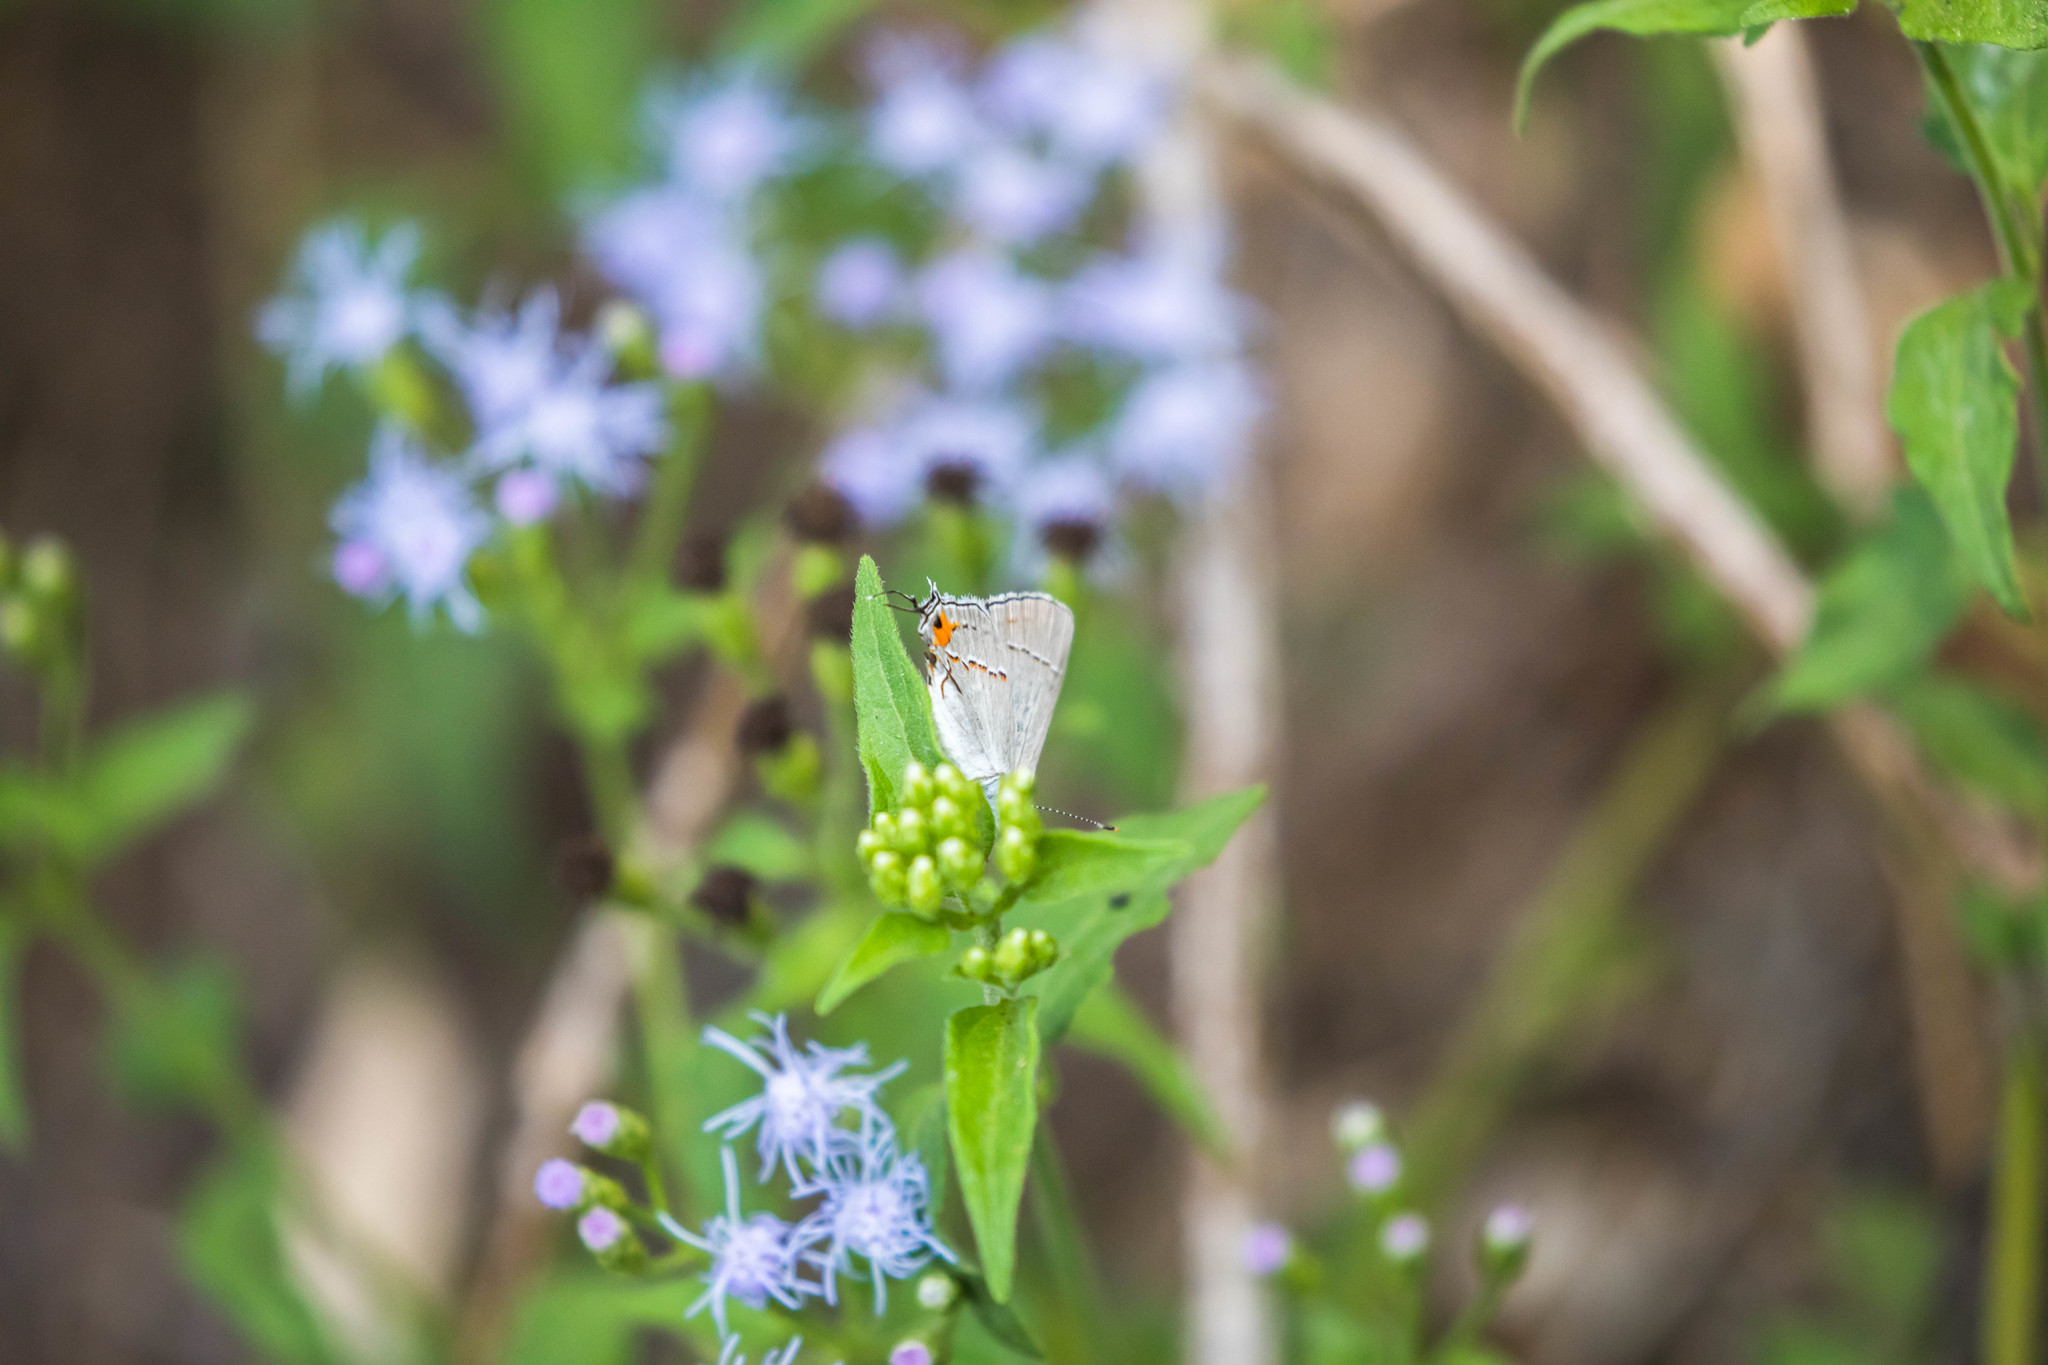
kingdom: Animalia
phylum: Arthropoda
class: Insecta
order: Lepidoptera
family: Lycaenidae
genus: Strymon
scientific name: Strymon melinus
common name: Gray hairstreak
